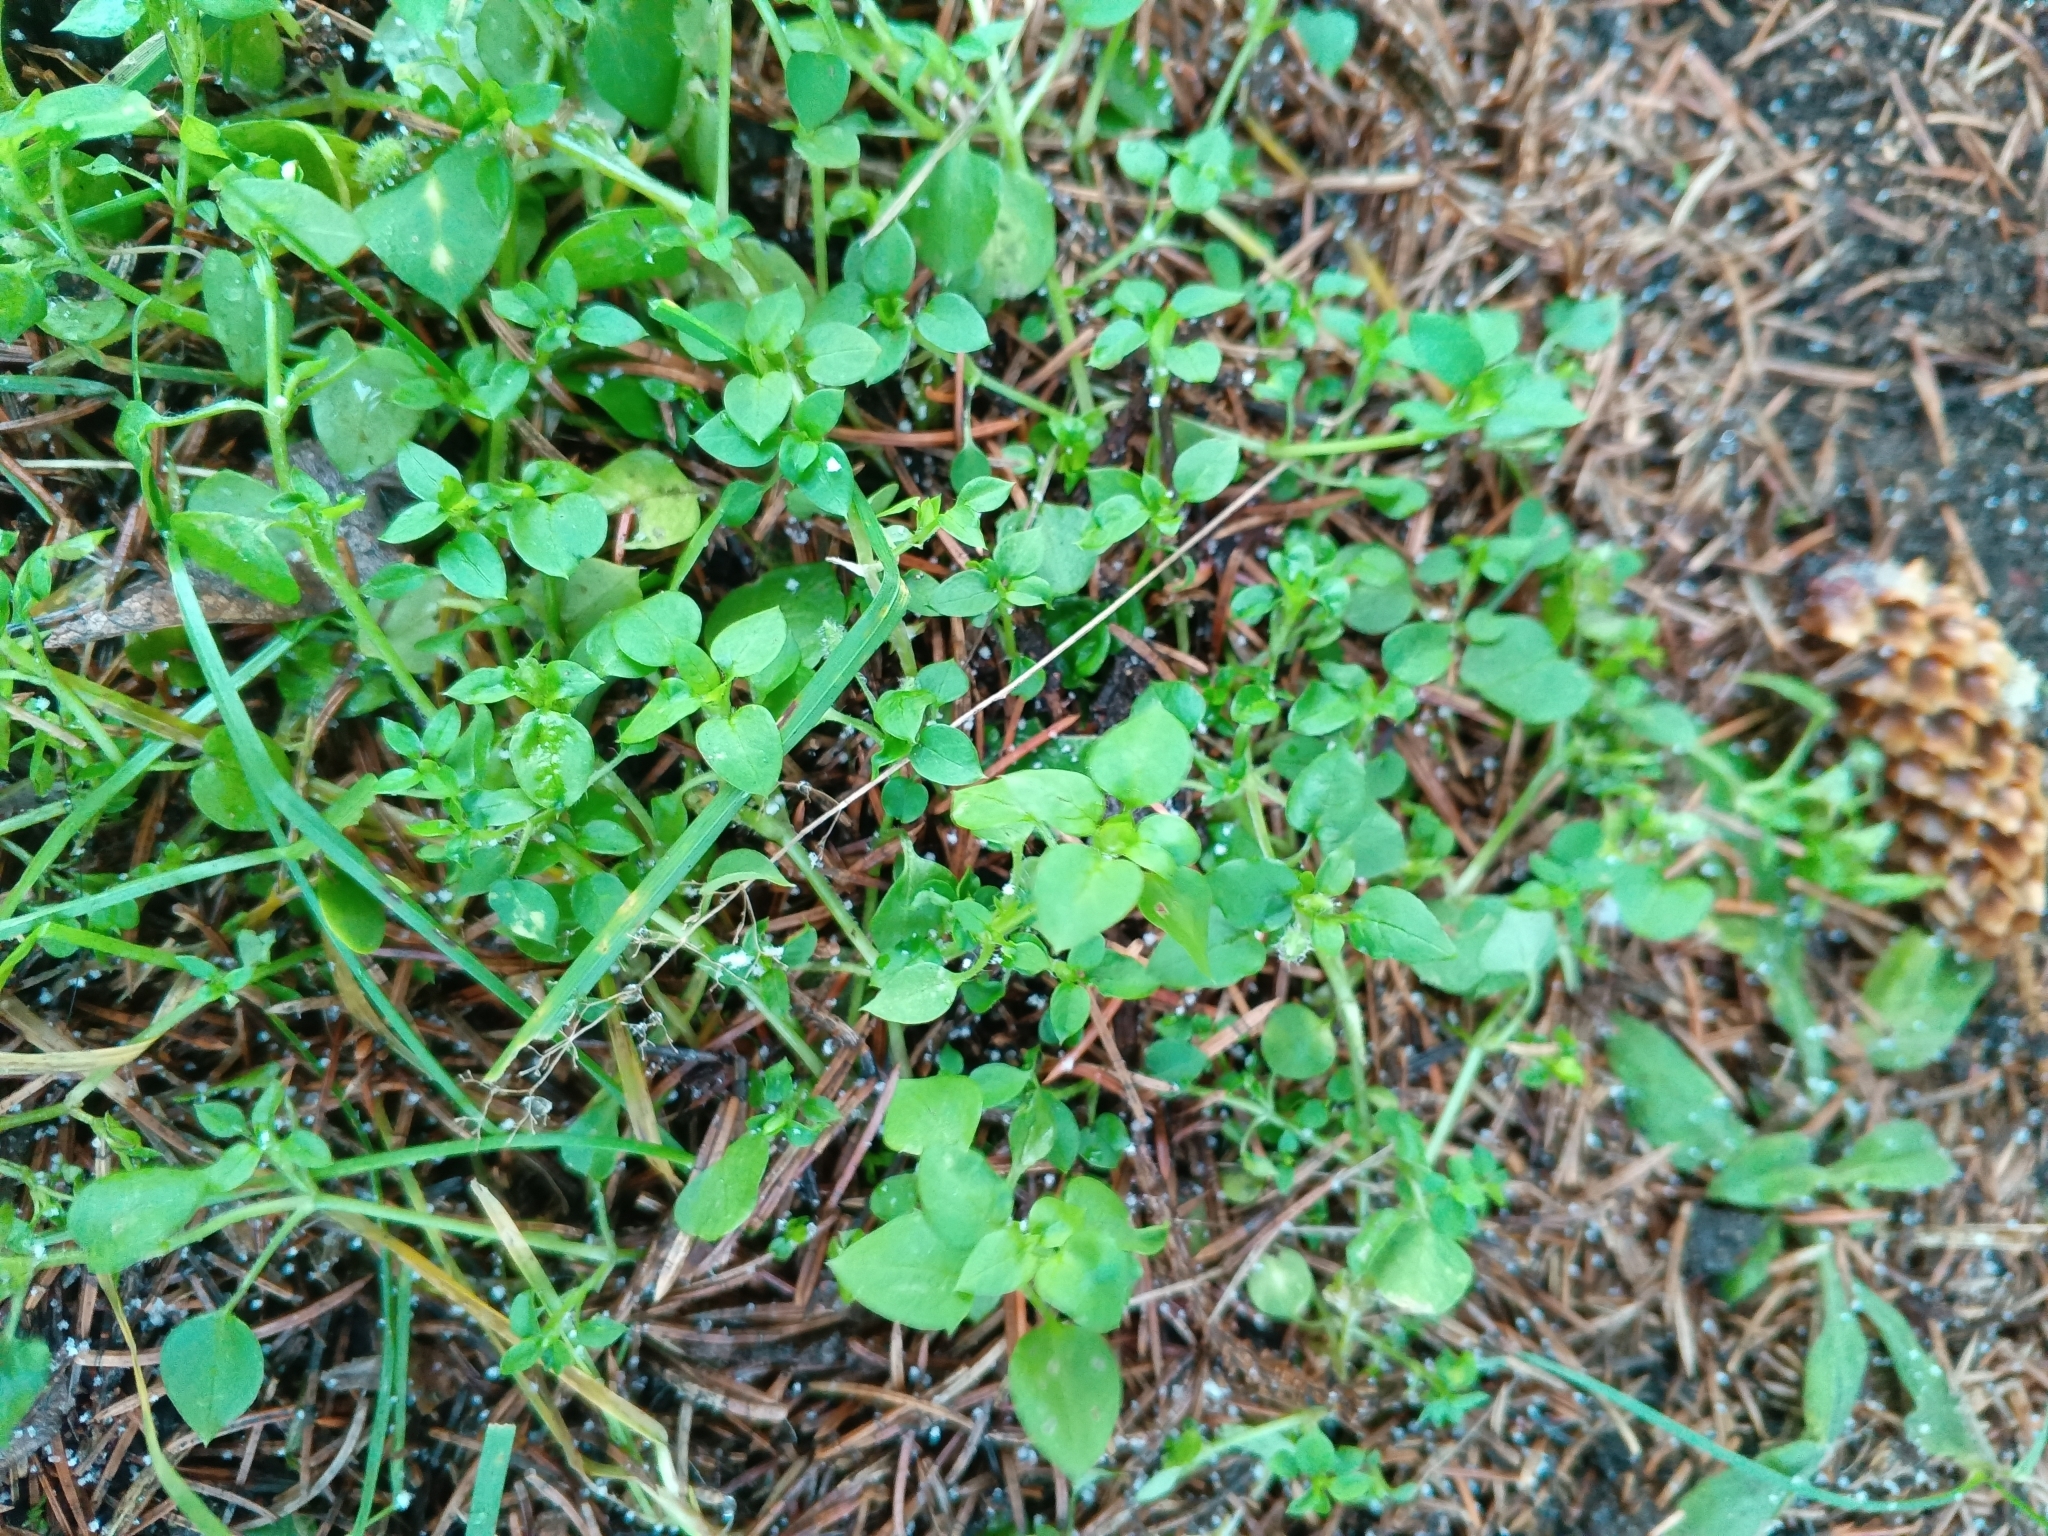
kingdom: Plantae
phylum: Tracheophyta
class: Magnoliopsida
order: Caryophyllales
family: Caryophyllaceae
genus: Stellaria
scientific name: Stellaria media
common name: Common chickweed
